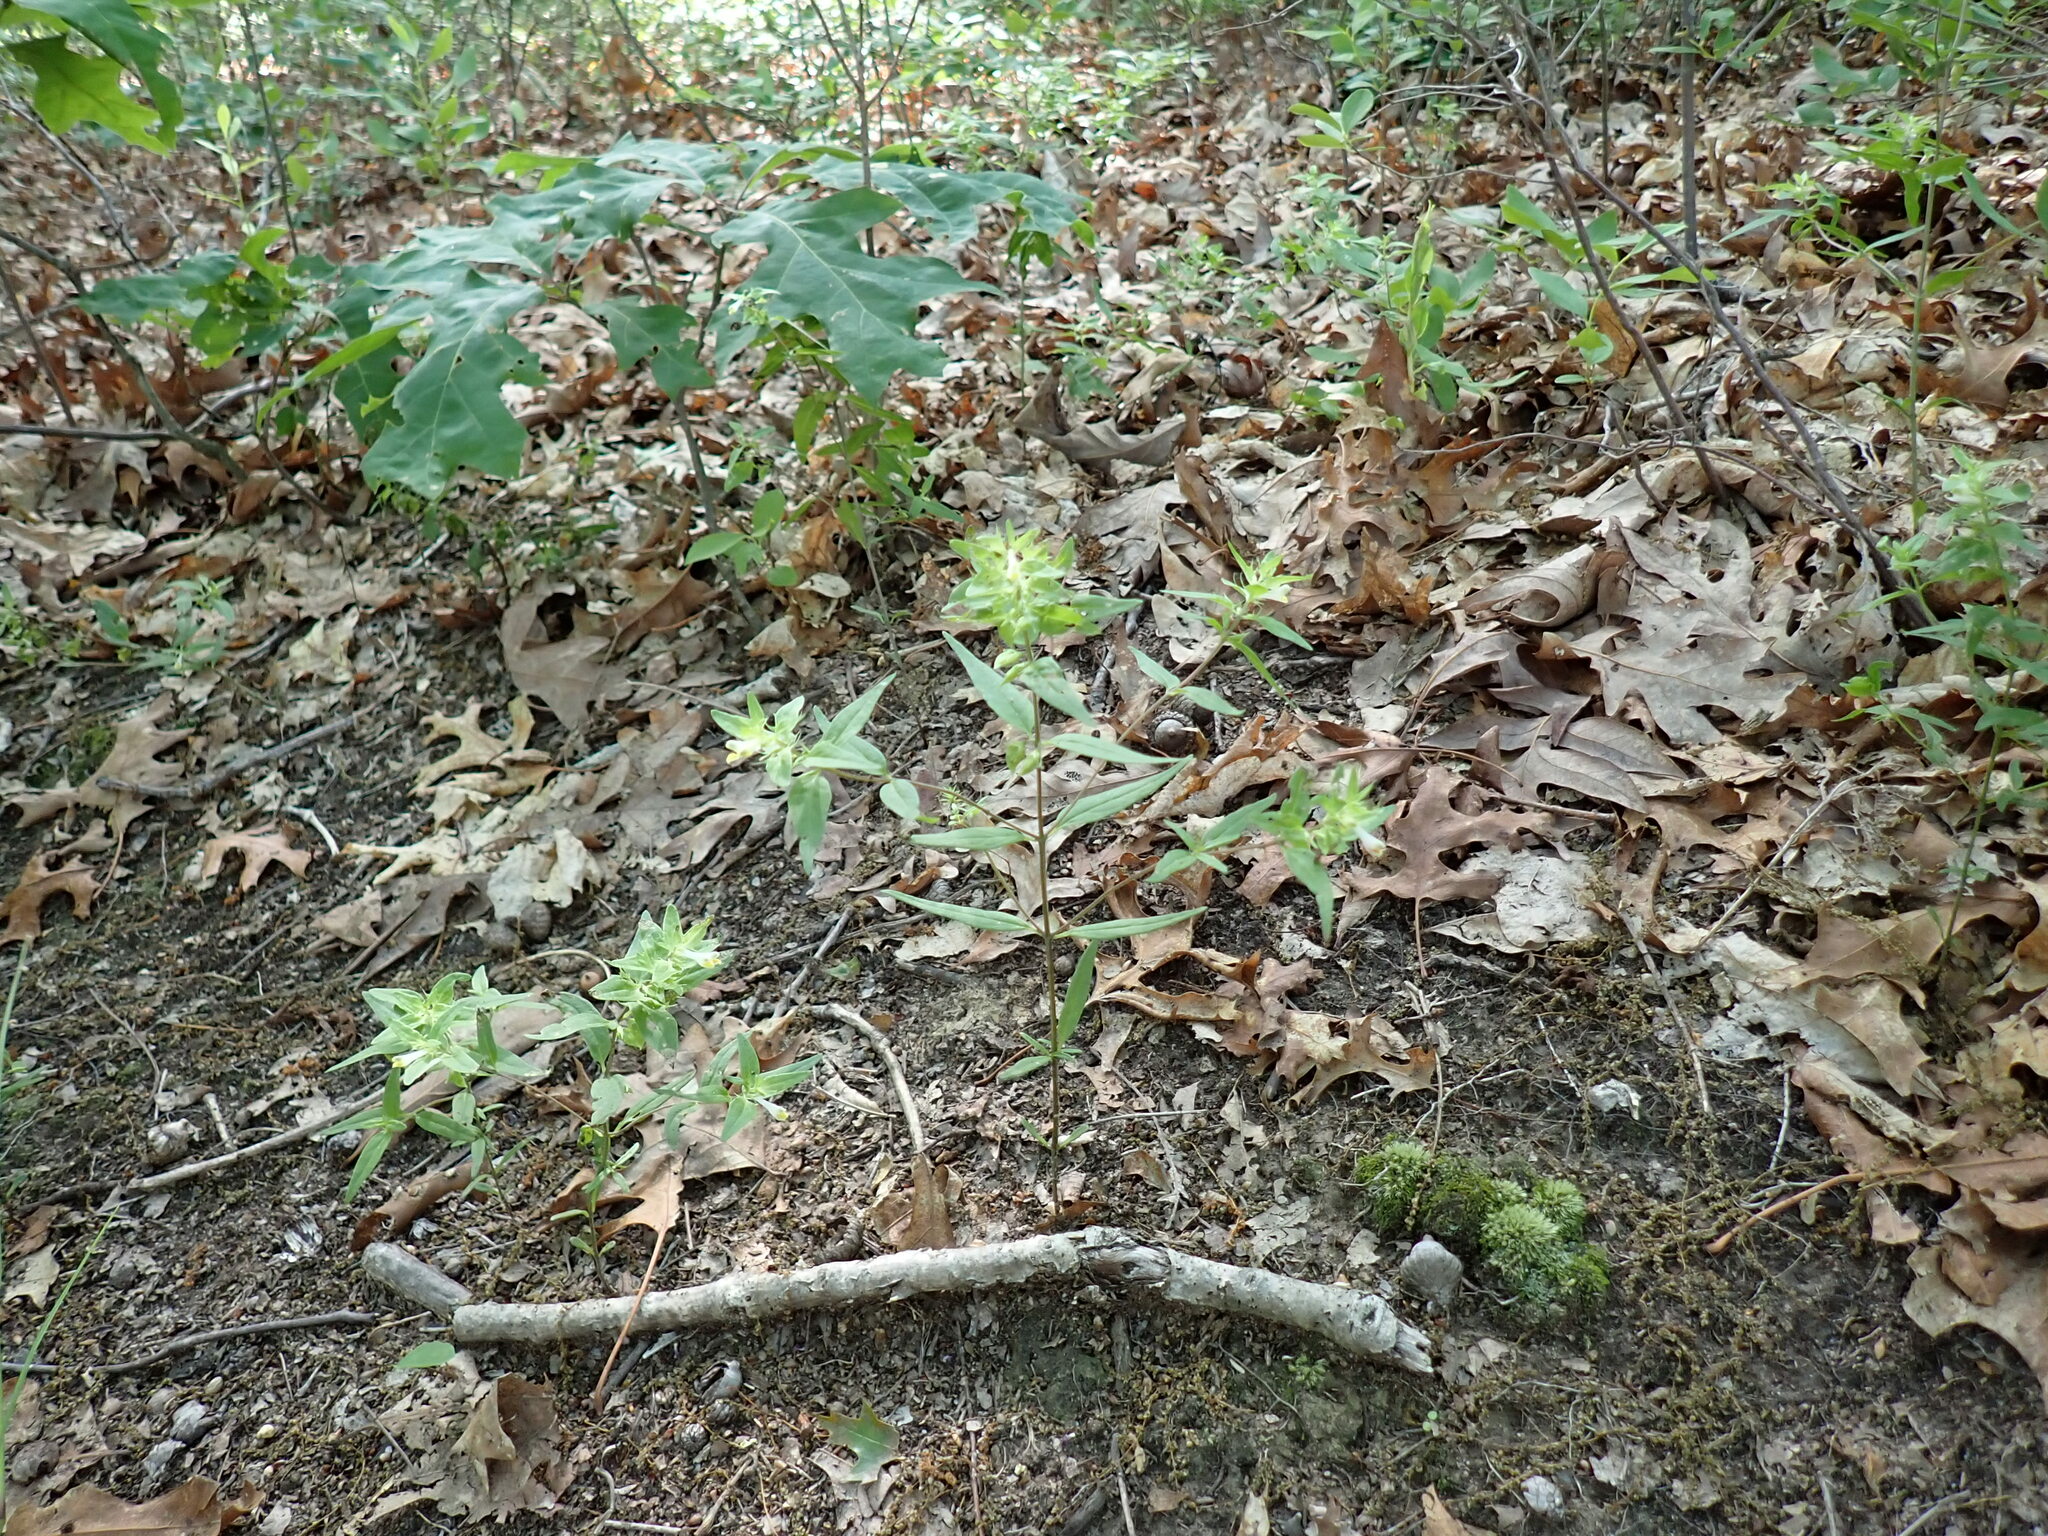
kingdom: Plantae
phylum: Tracheophyta
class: Magnoliopsida
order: Lamiales
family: Orobanchaceae
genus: Melampyrum
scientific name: Melampyrum lineare
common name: American cow-wheat
